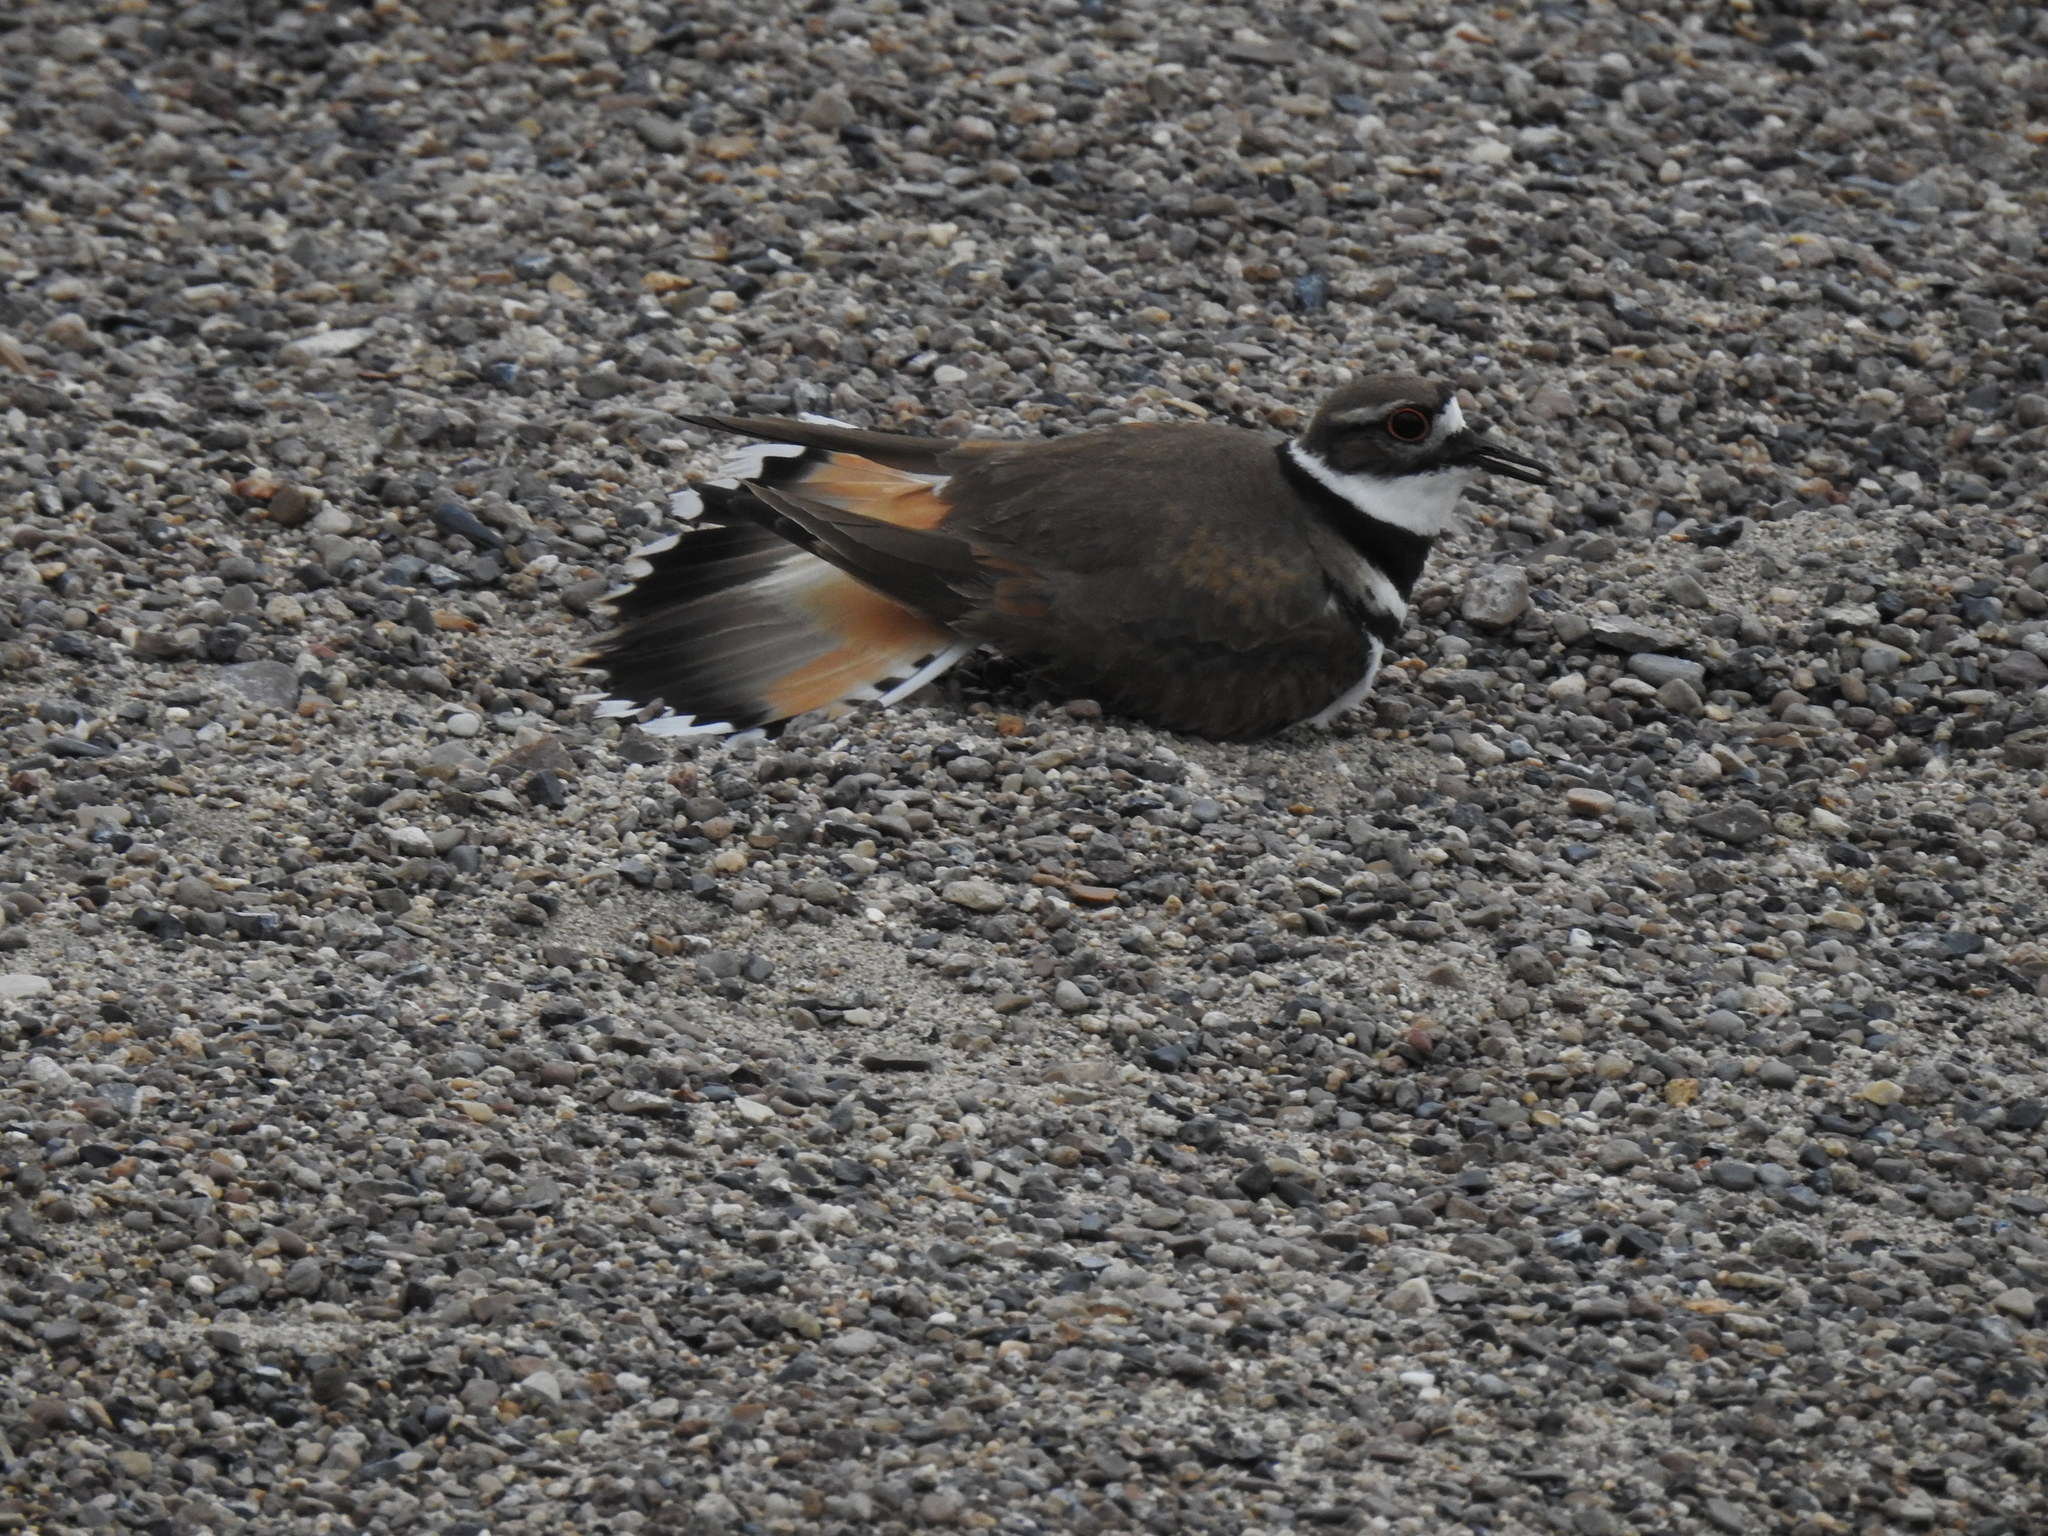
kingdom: Animalia
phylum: Chordata
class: Aves
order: Charadriiformes
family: Charadriidae
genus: Charadrius
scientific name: Charadrius vociferus
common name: Killdeer
